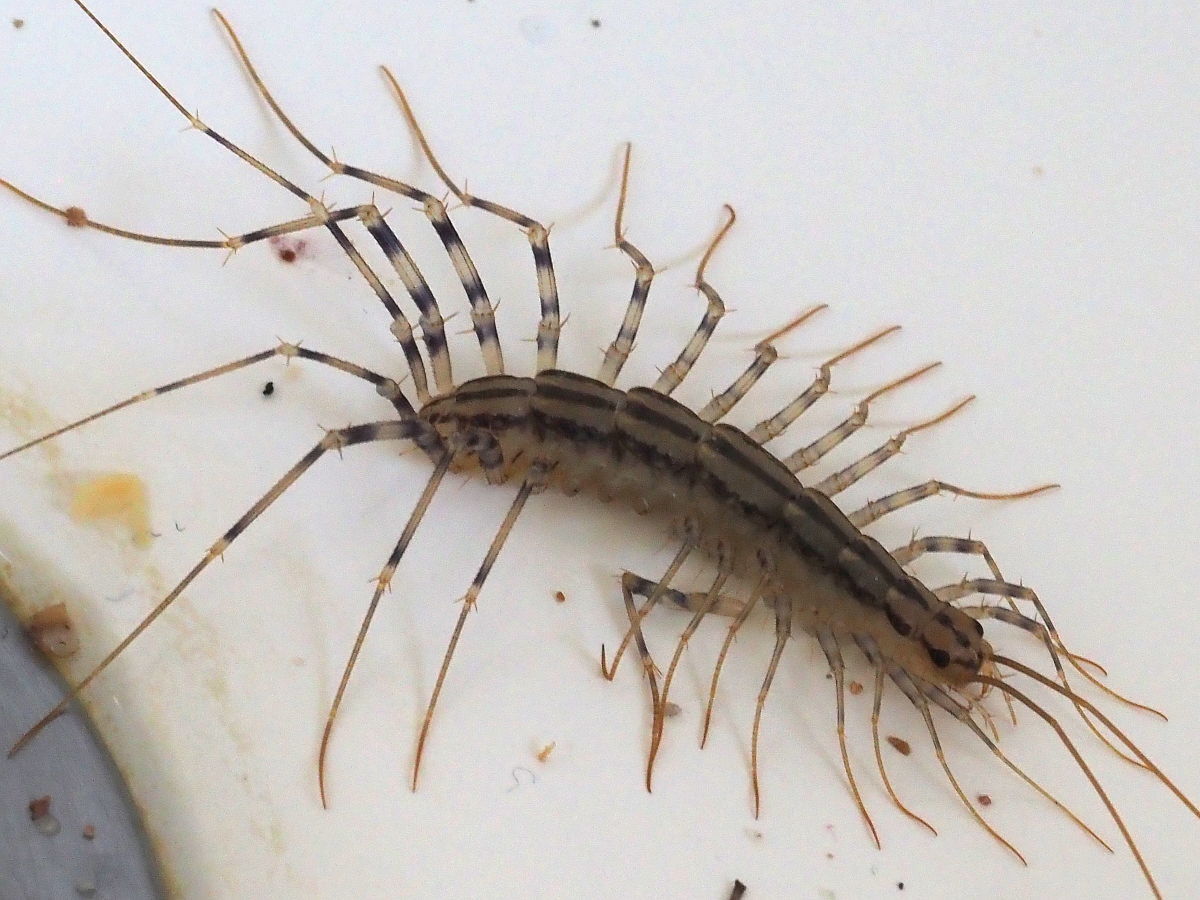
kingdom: Animalia
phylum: Arthropoda
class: Chilopoda
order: Scutigeromorpha
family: Scutigeridae
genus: Scutigera
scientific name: Scutigera coleoptrata
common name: House centipede
